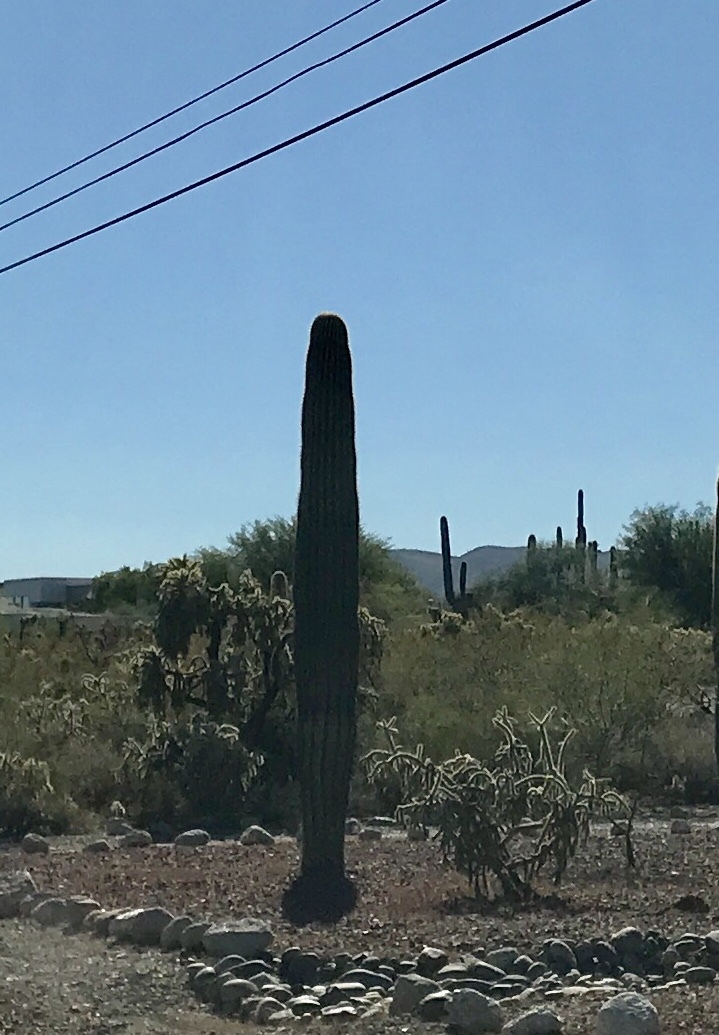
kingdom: Plantae
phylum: Tracheophyta
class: Magnoliopsida
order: Caryophyllales
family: Cactaceae
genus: Carnegiea
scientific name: Carnegiea gigantea
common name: Saguaro
